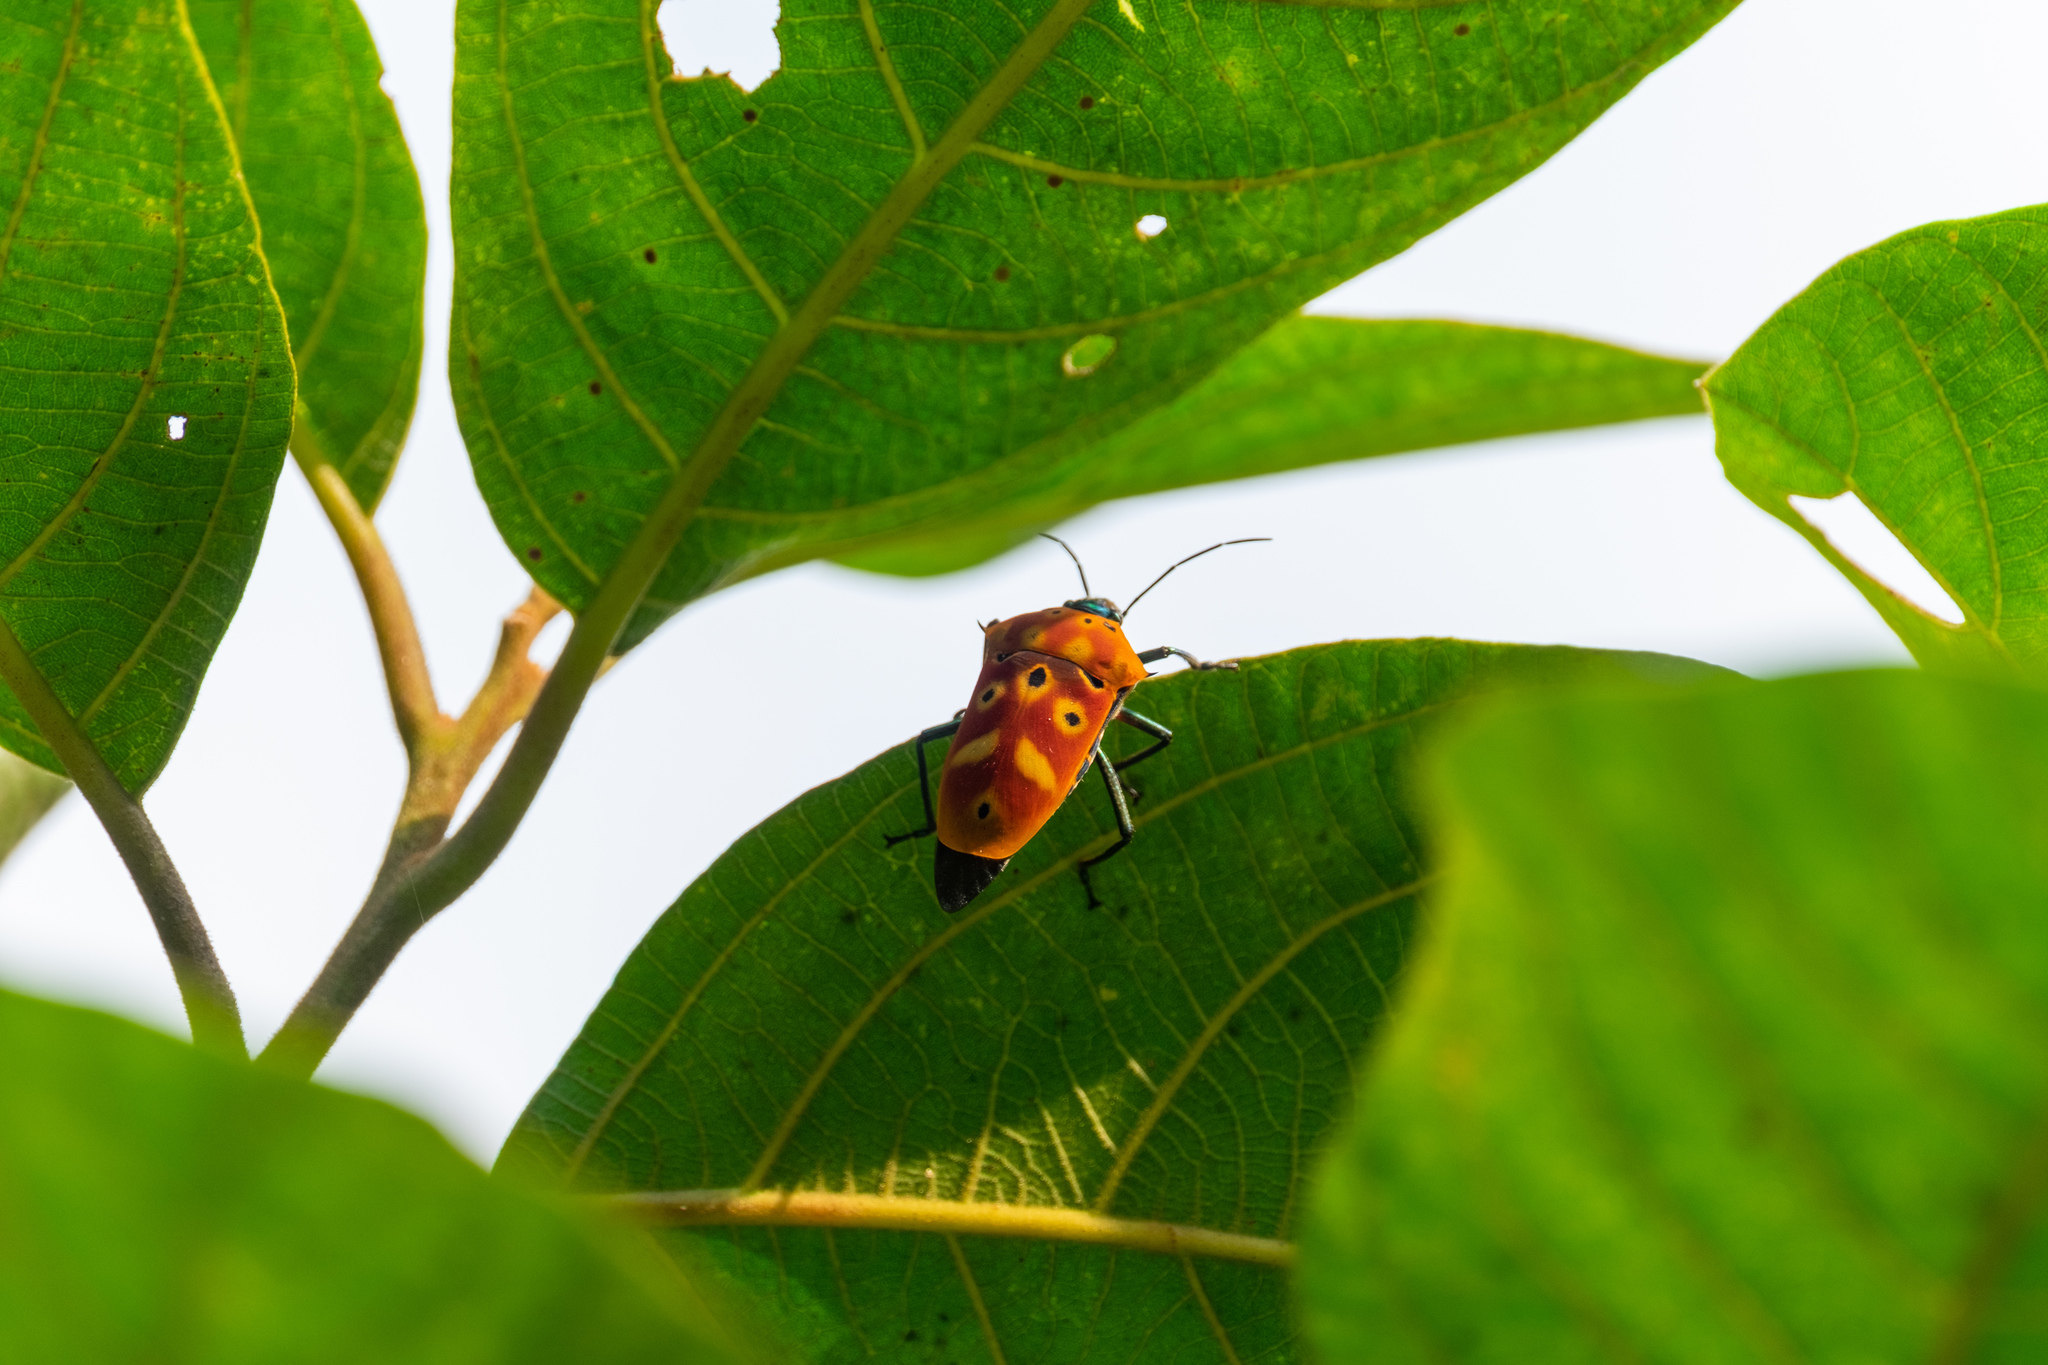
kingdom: Animalia
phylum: Arthropoda
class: Insecta
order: Hemiptera
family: Scutelleridae
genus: Cantao
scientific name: Cantao ocellatus
